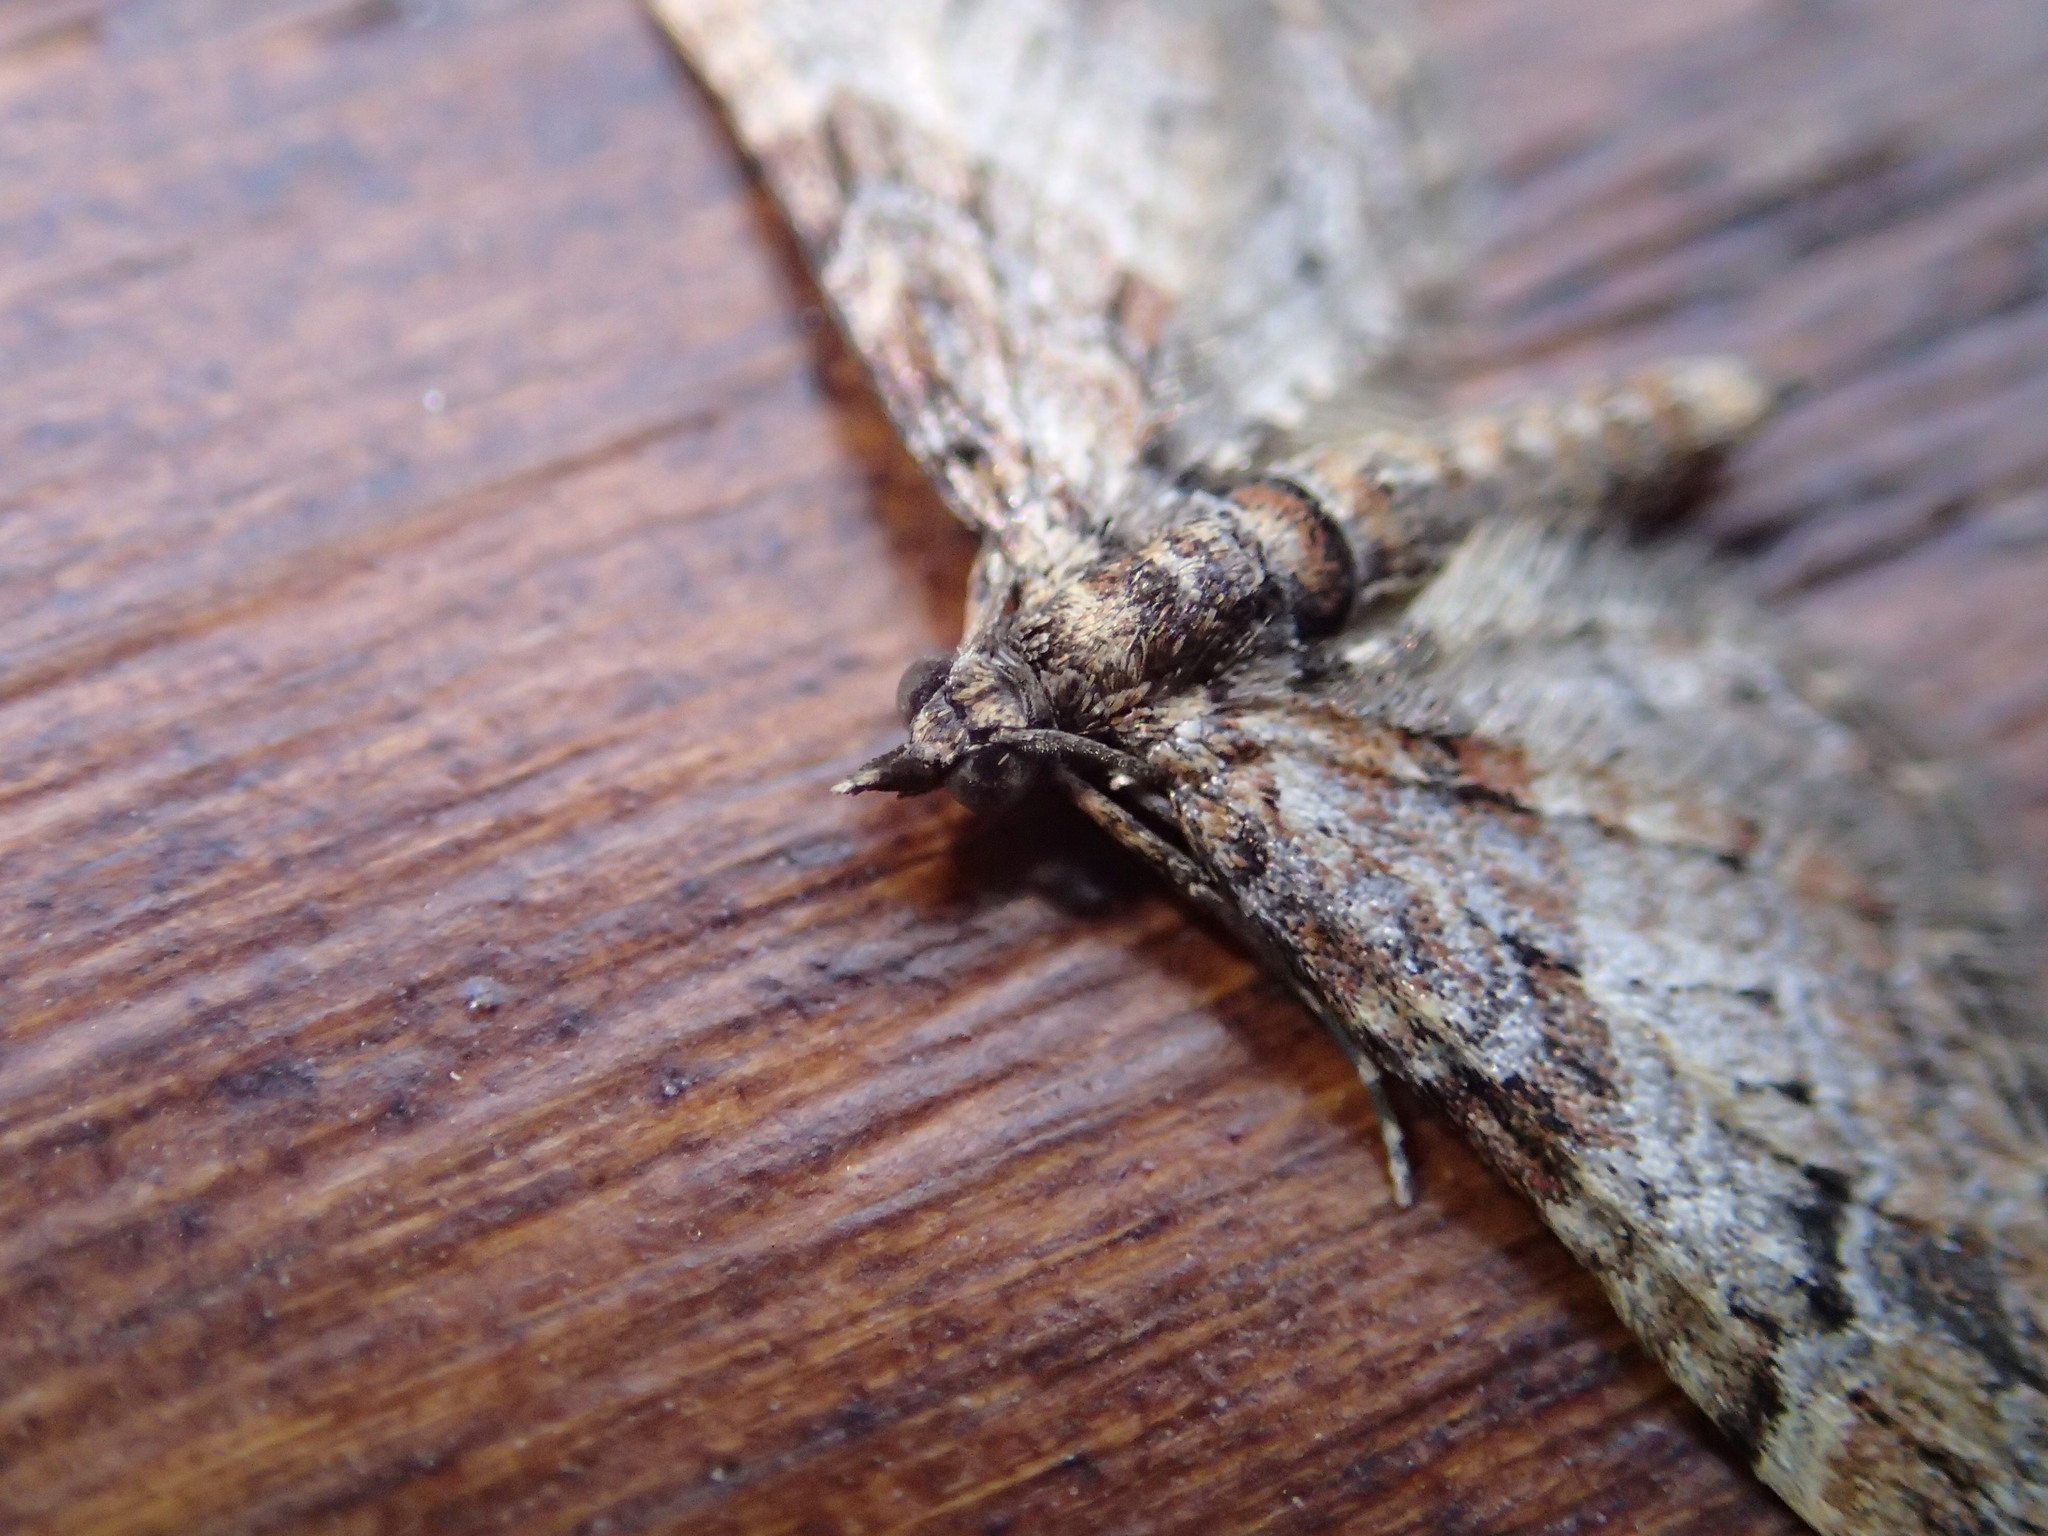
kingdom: Animalia
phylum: Arthropoda
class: Insecta
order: Lepidoptera
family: Geometridae
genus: Gymnoscelis
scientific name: Gymnoscelis rufifasciata
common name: Double-striped pug
